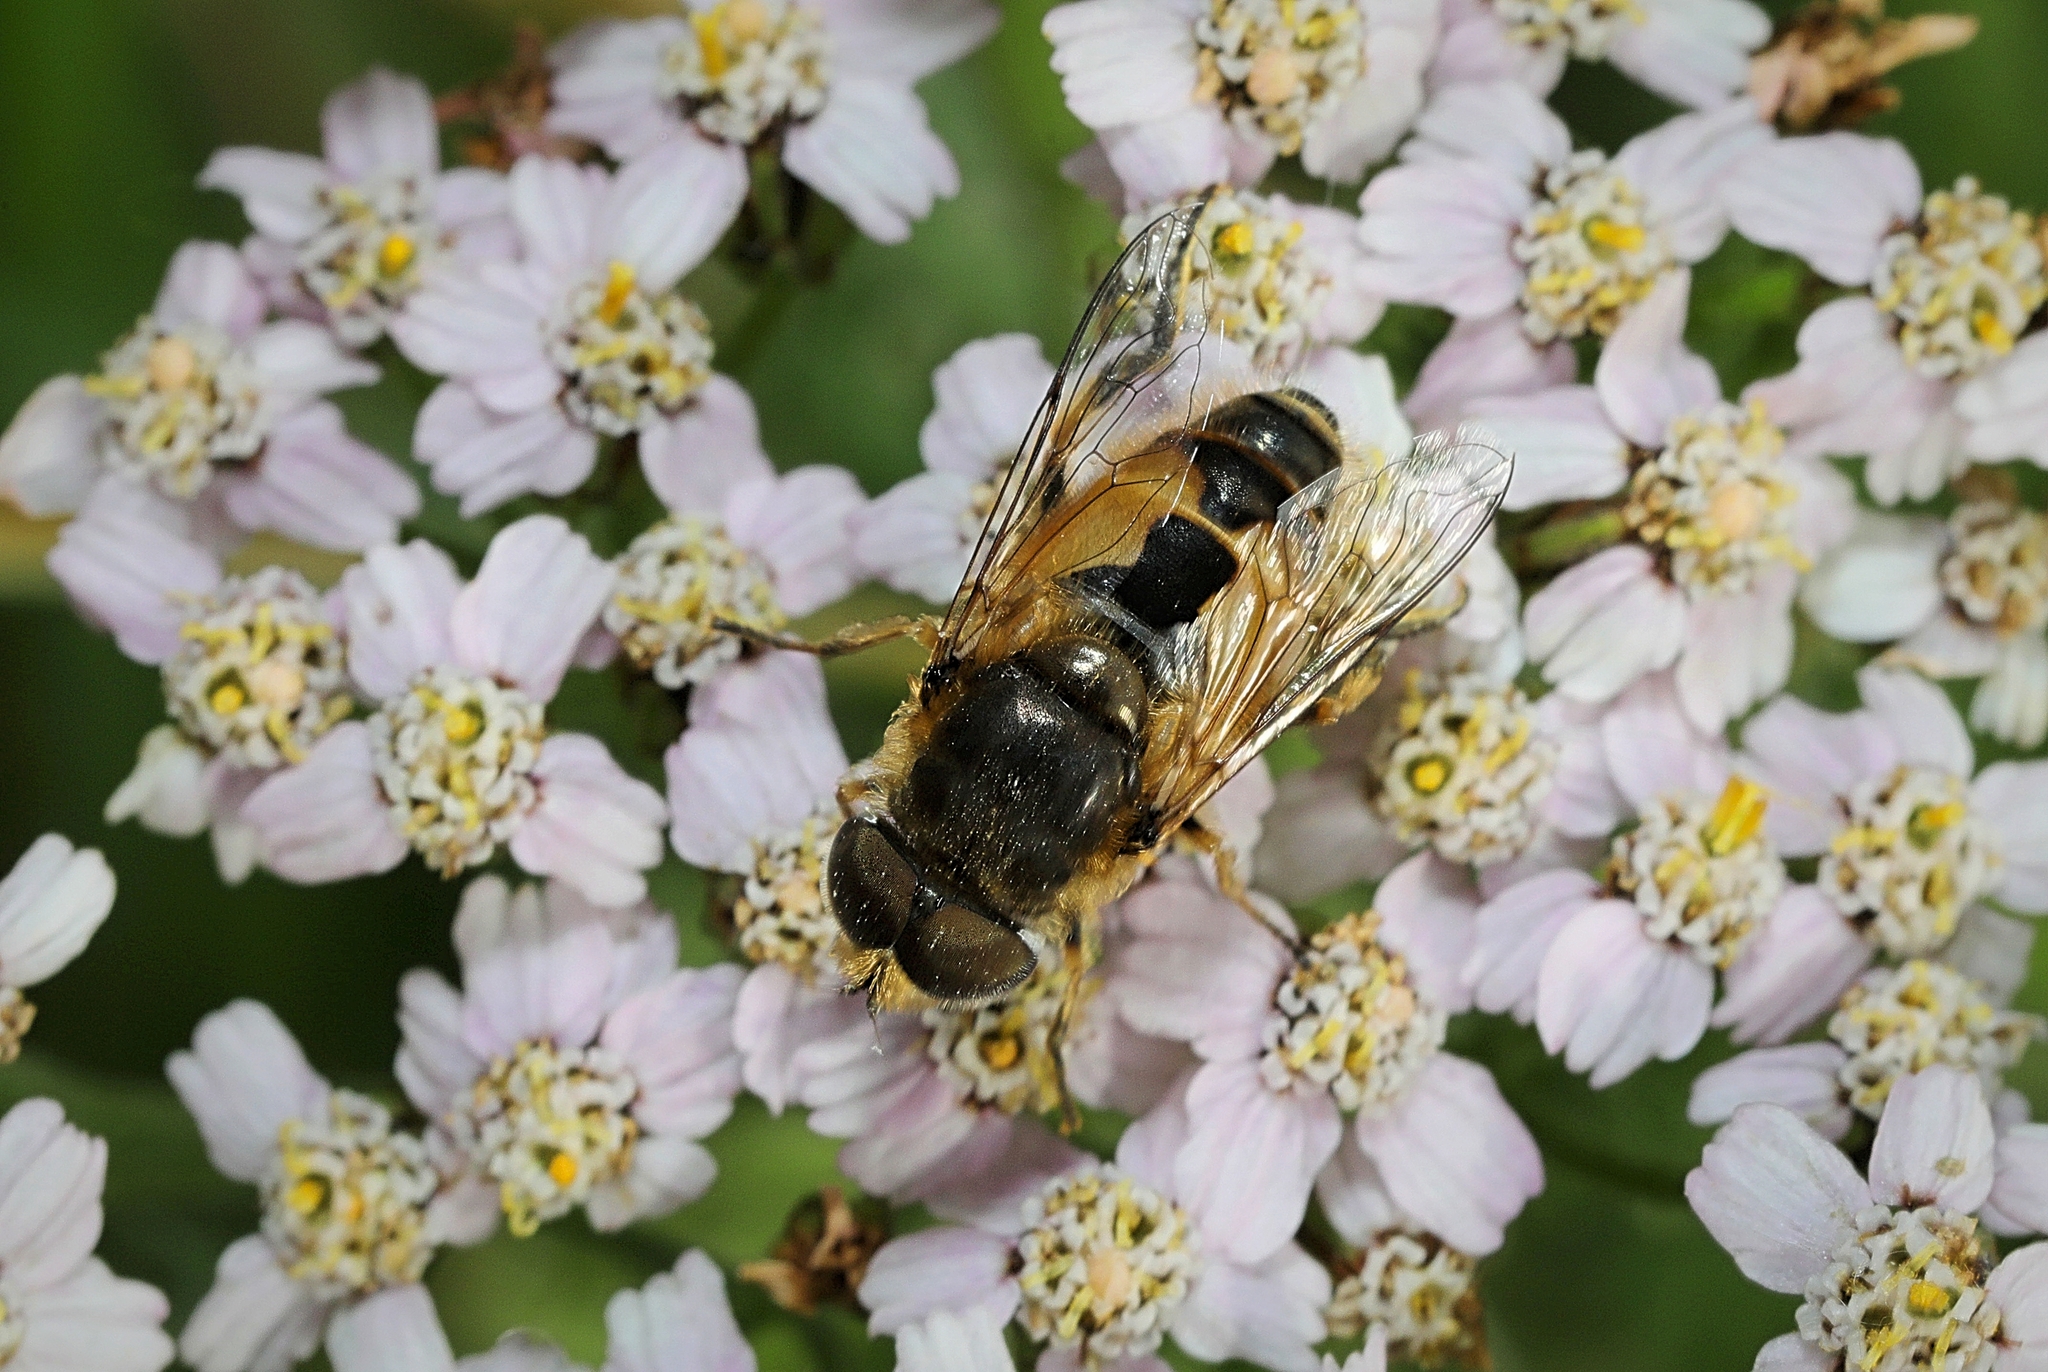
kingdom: Animalia
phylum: Arthropoda
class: Insecta
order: Diptera
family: Syrphidae
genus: Eristalis
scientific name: Eristalis arbustorum
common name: Hover fly
